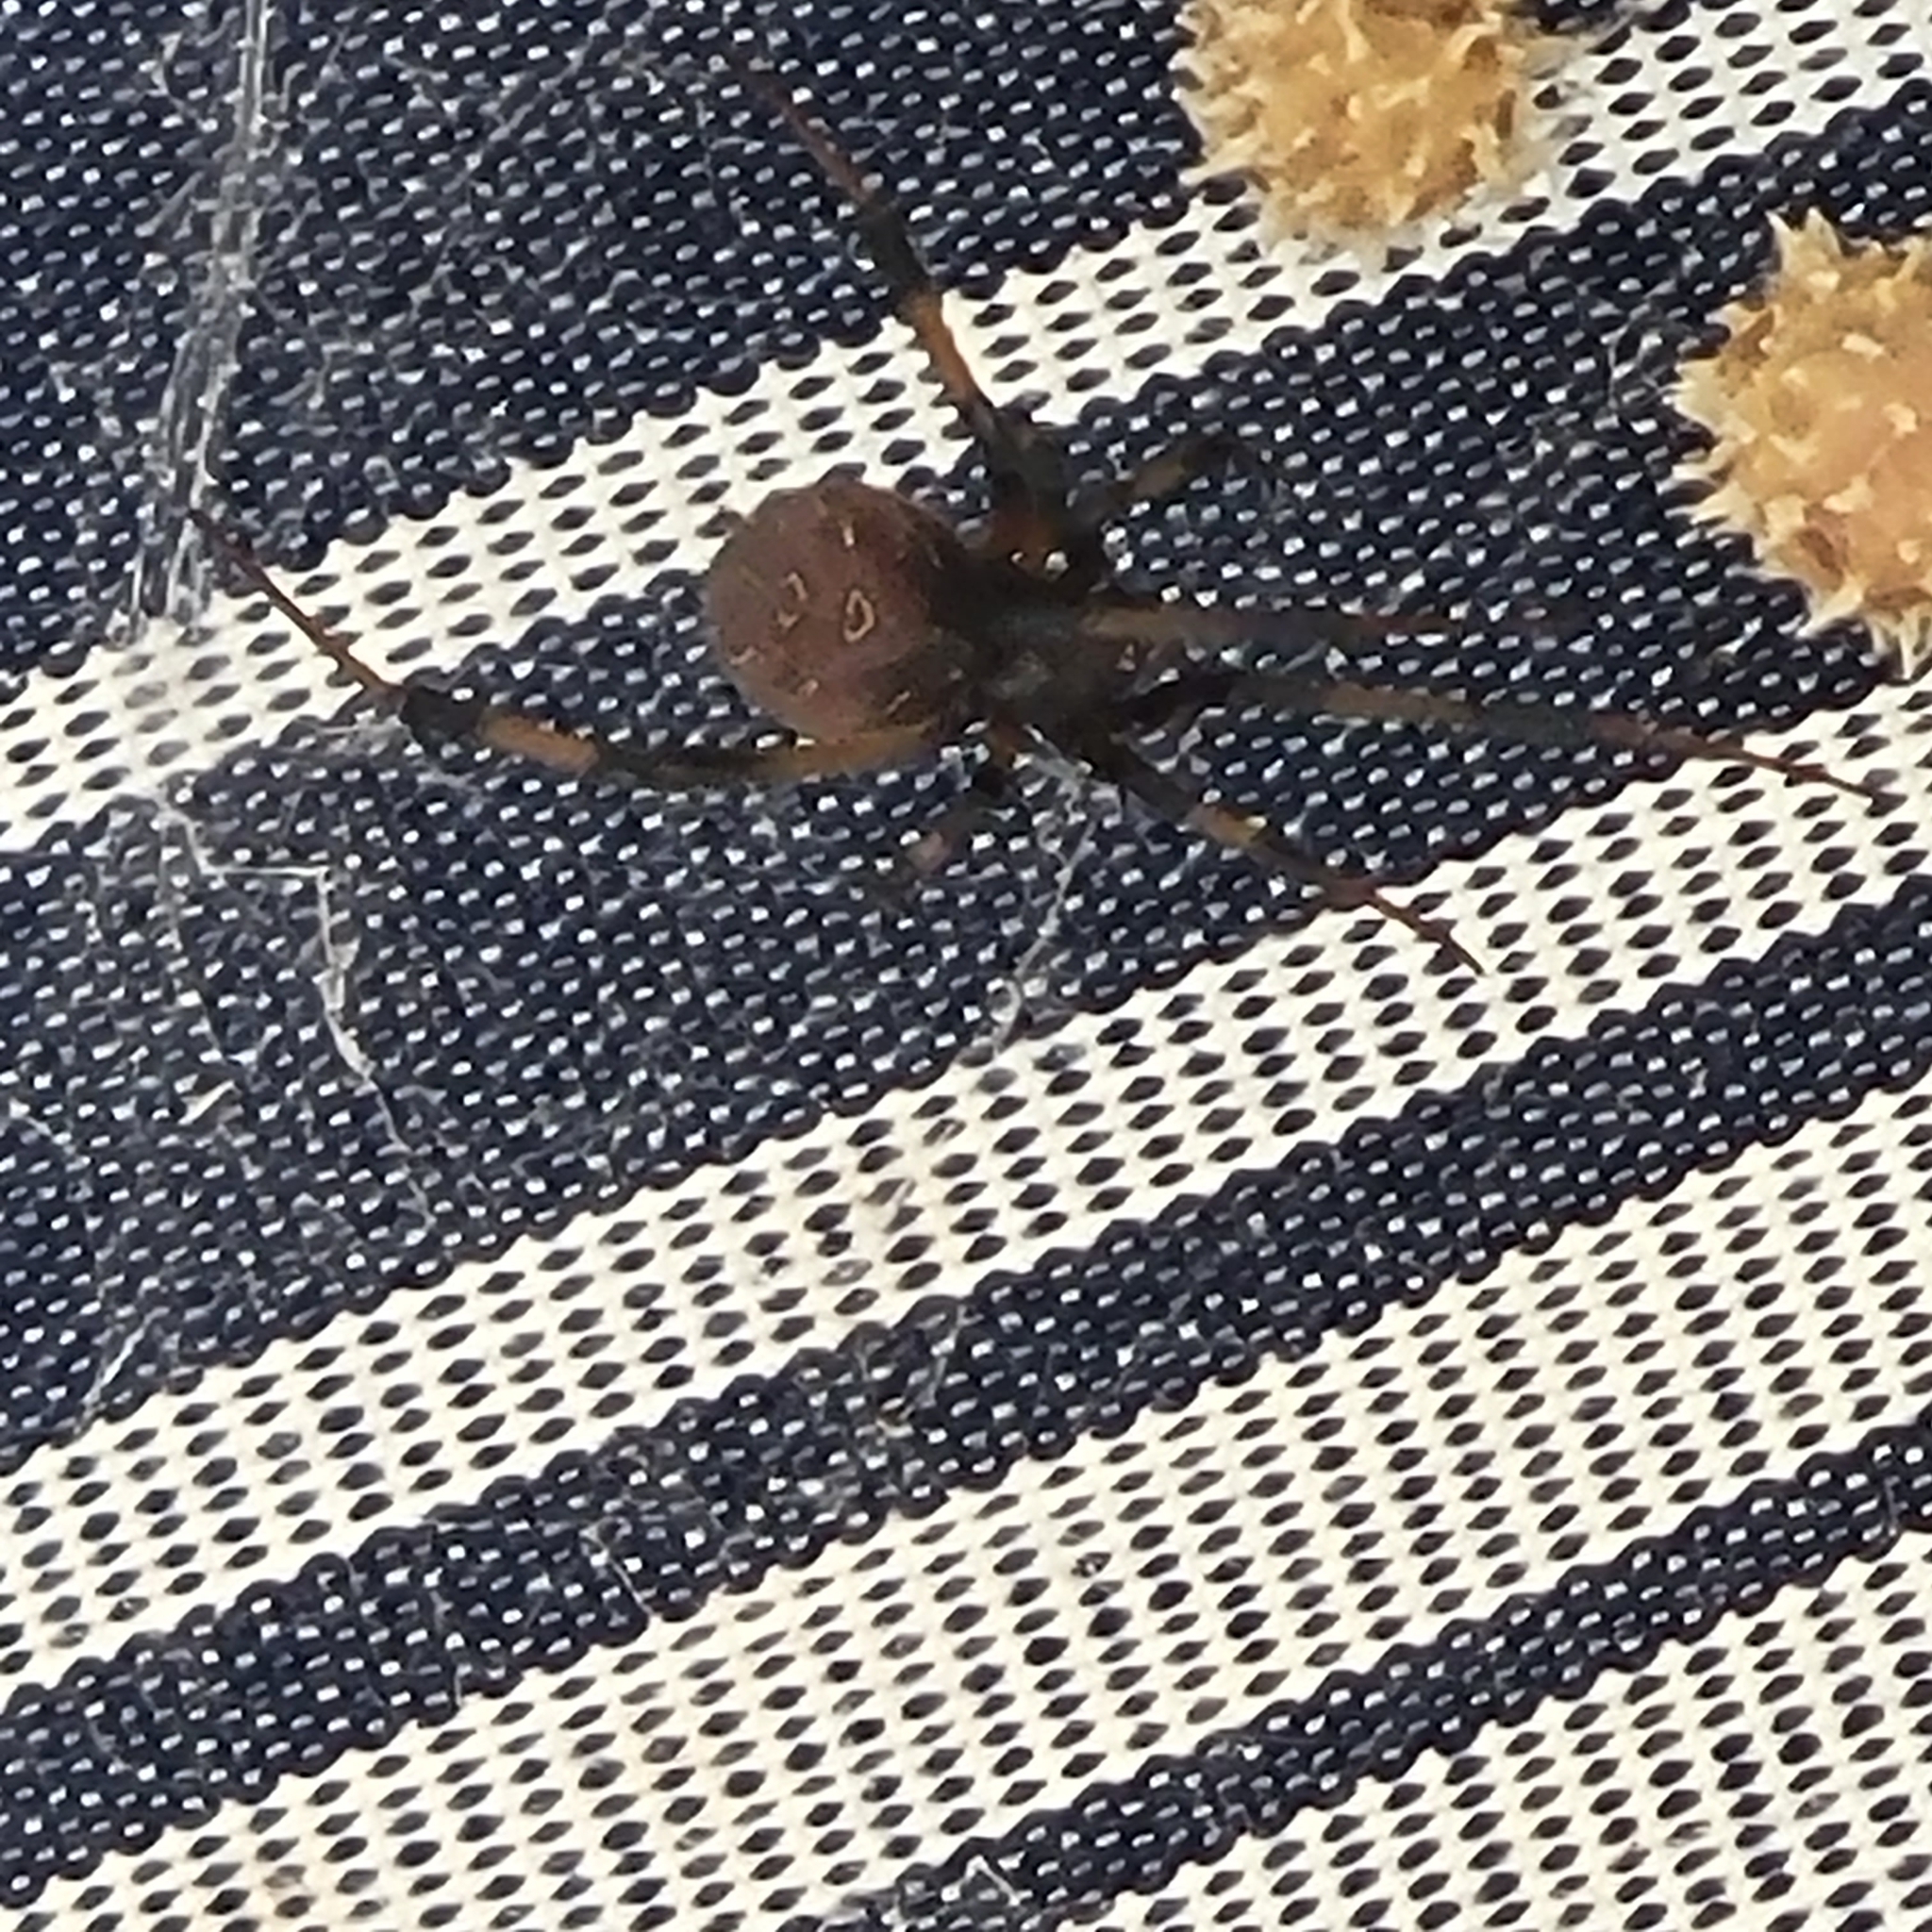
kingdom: Animalia
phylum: Arthropoda
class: Arachnida
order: Araneae
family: Theridiidae
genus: Latrodectus
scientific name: Latrodectus geometricus
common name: Brown widow spider
